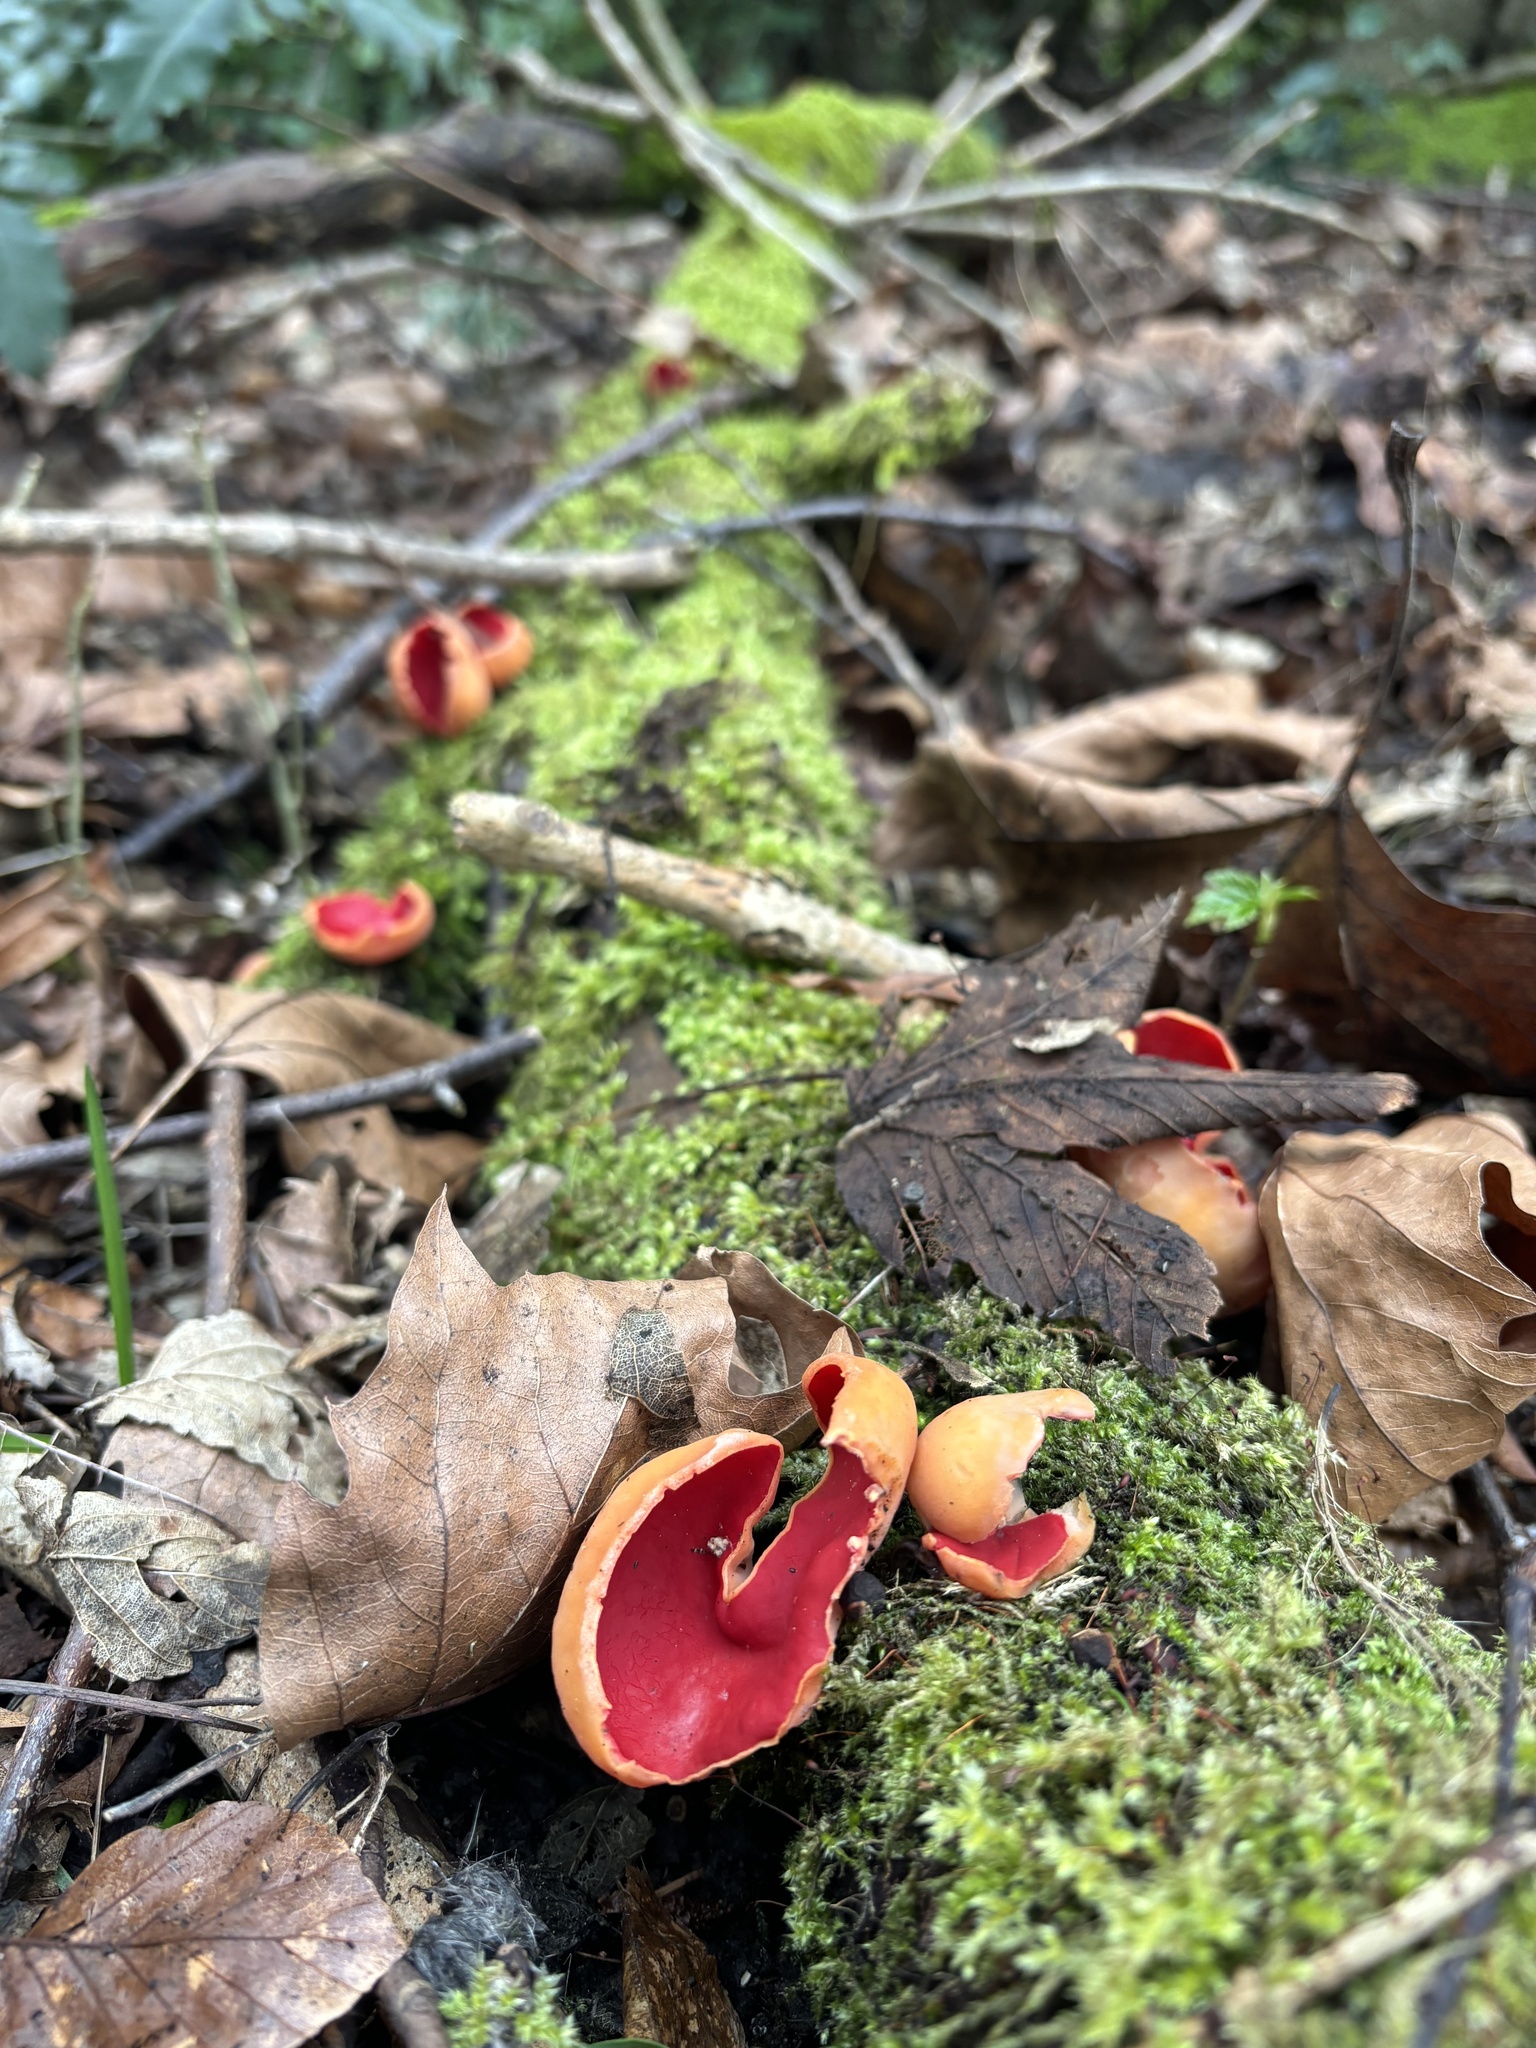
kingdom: Fungi
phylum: Ascomycota
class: Pezizomycetes
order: Pezizales
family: Sarcoscyphaceae
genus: Sarcoscypha
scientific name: Sarcoscypha
